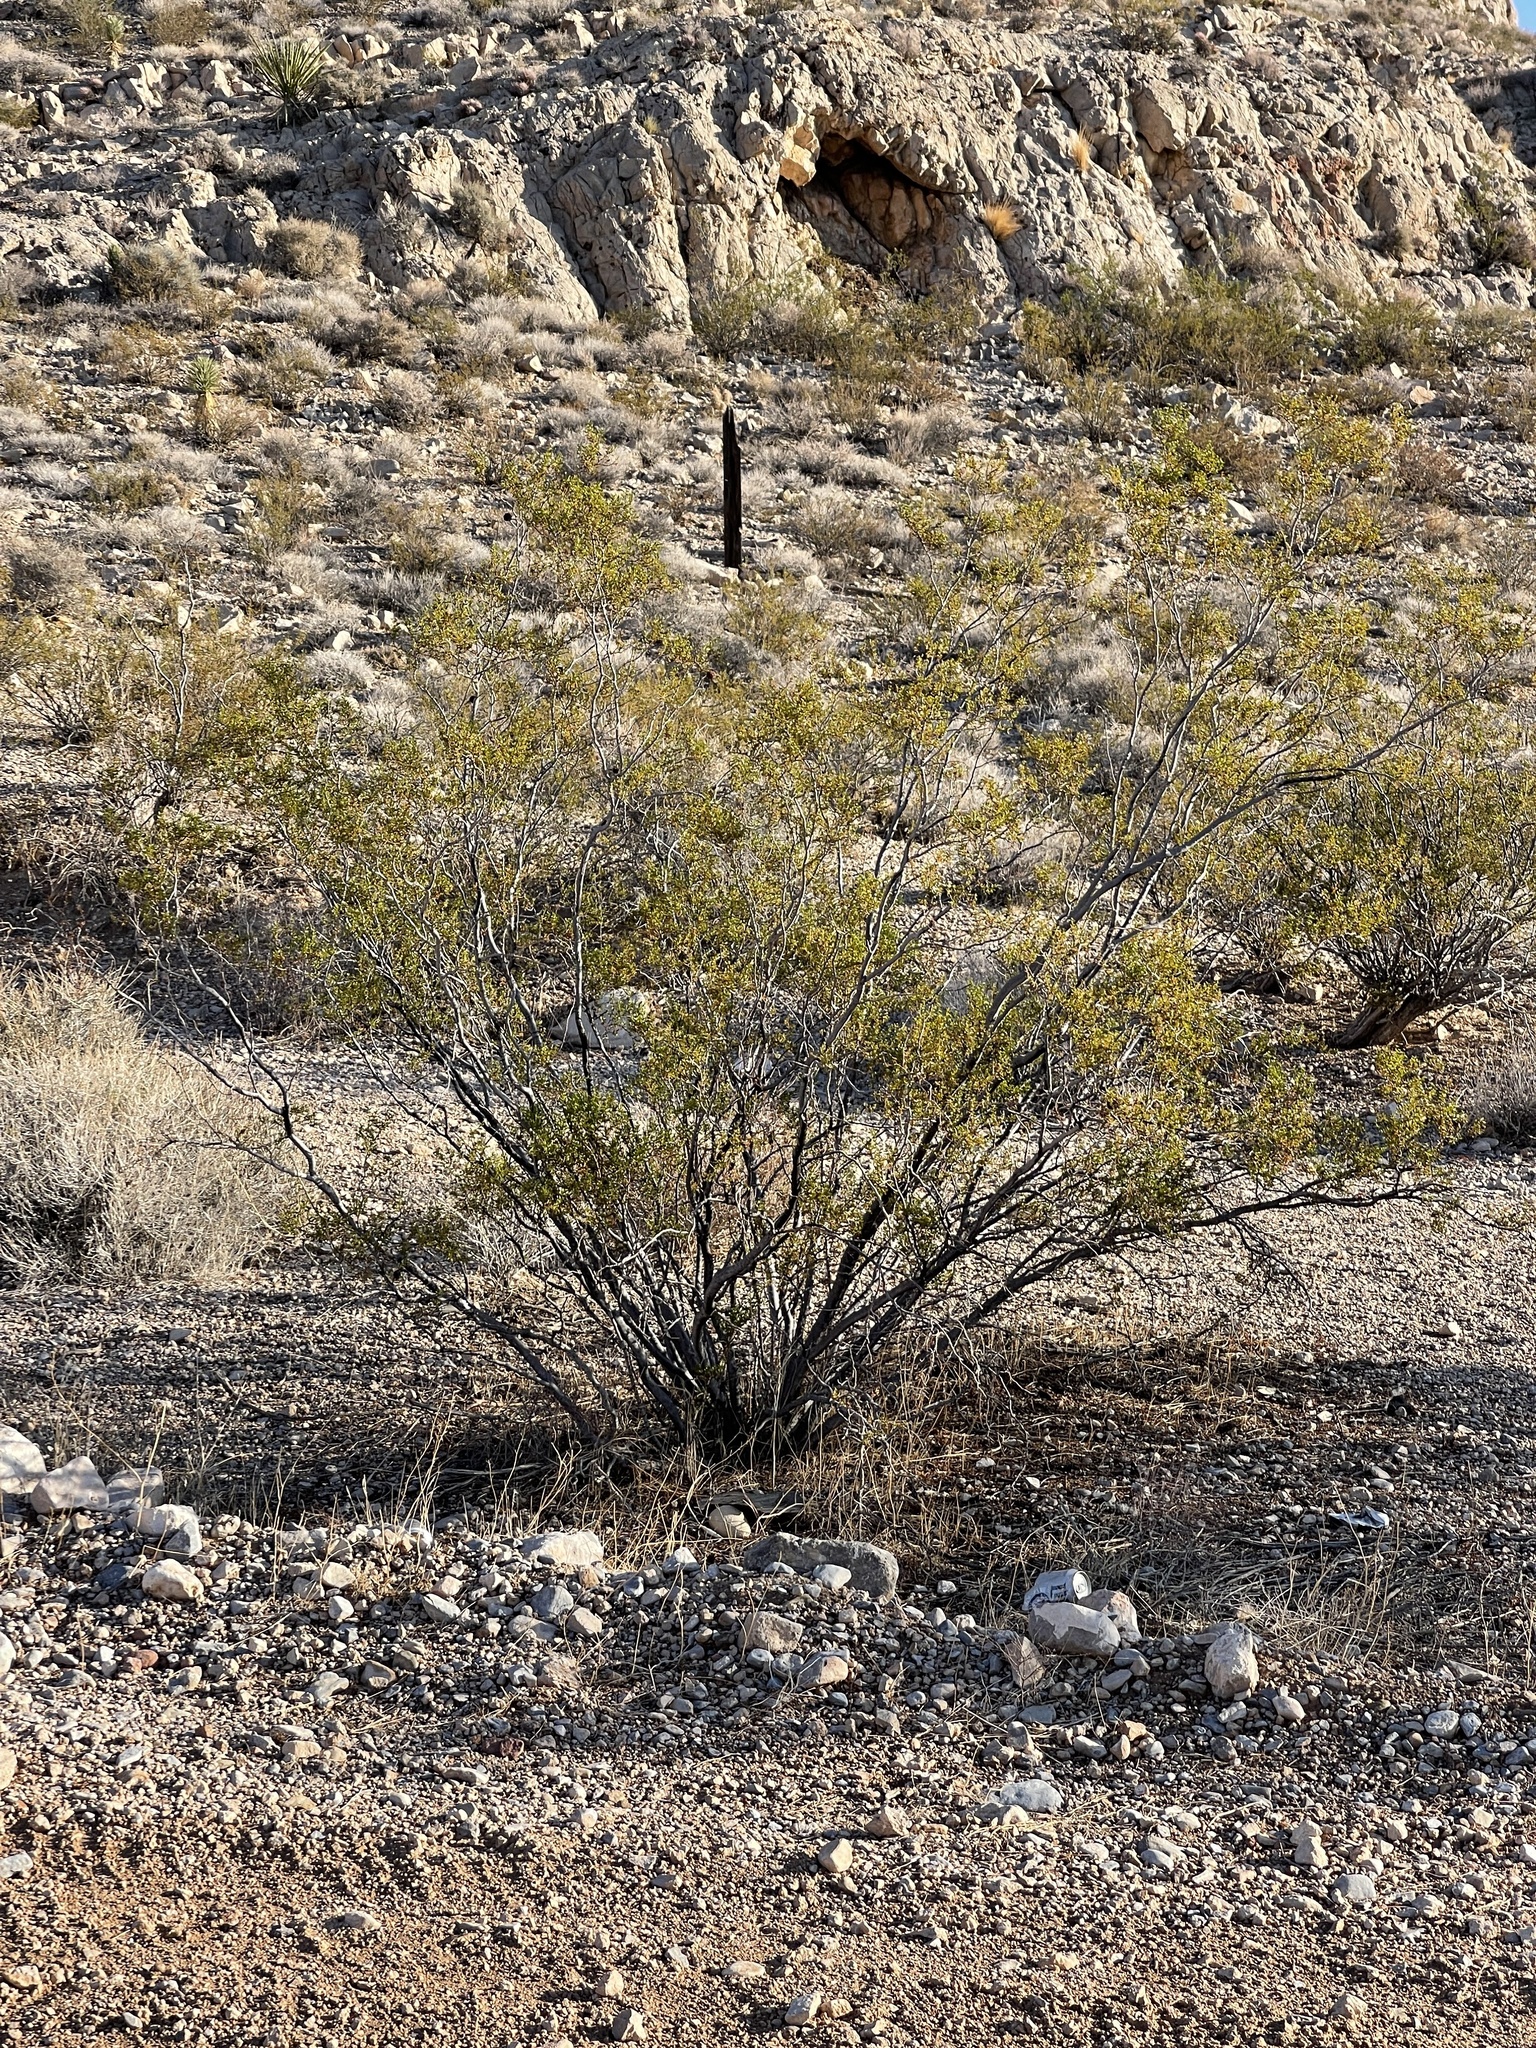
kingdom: Plantae
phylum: Tracheophyta
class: Magnoliopsida
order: Zygophyllales
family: Zygophyllaceae
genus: Larrea
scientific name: Larrea tridentata
